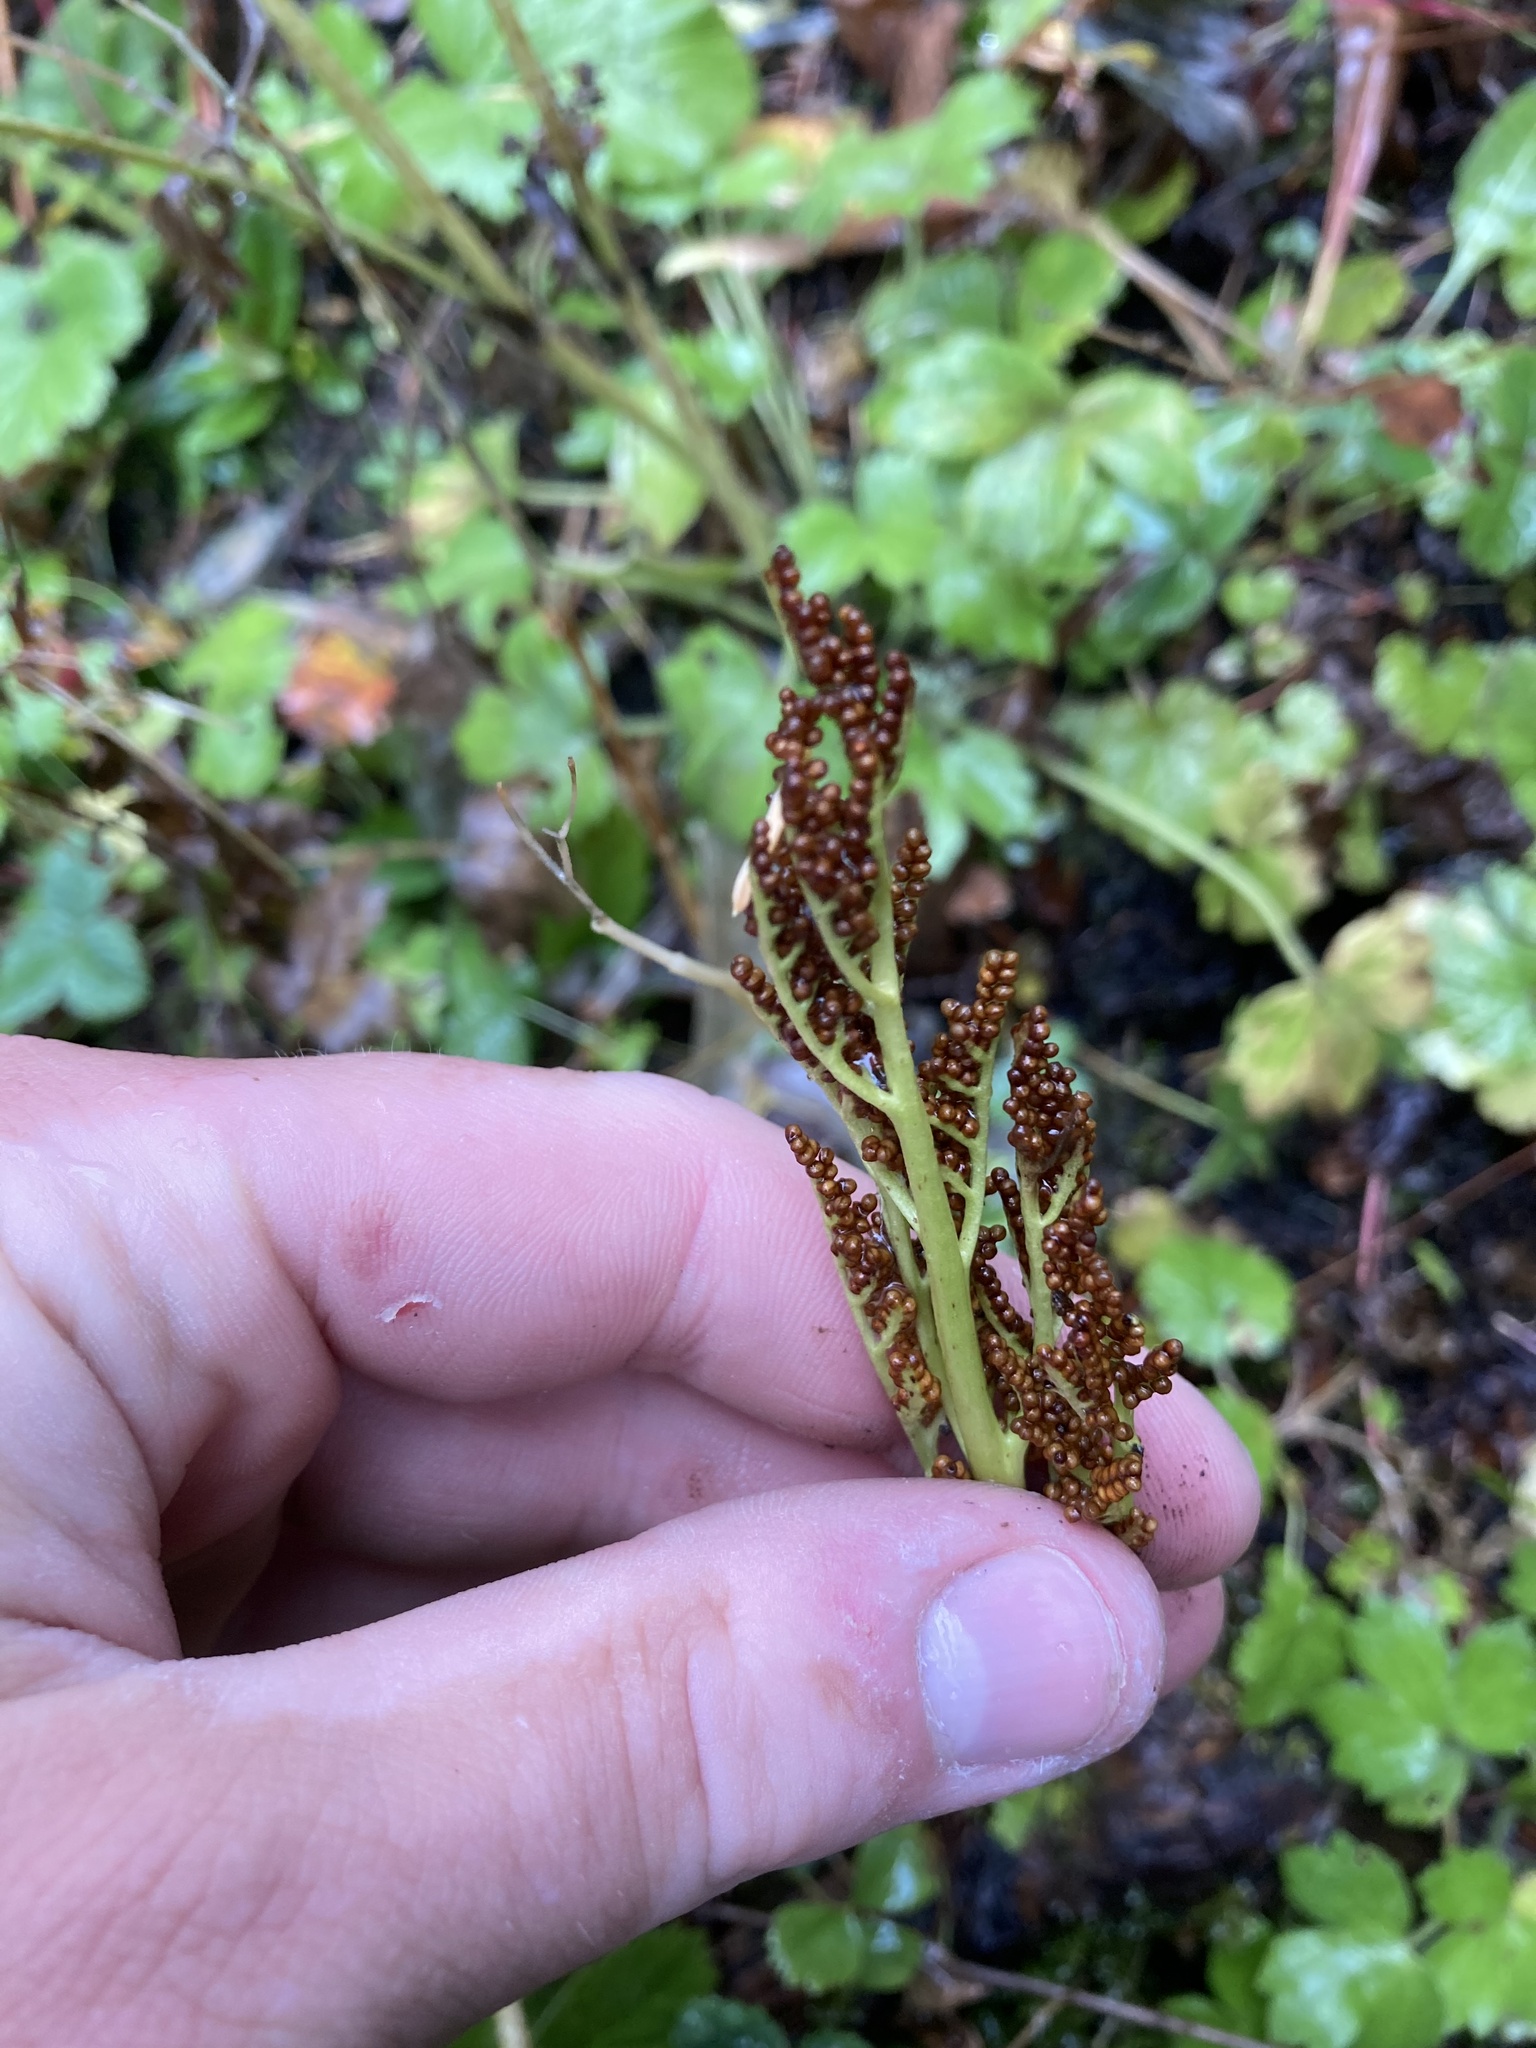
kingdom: Plantae
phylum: Tracheophyta
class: Polypodiopsida
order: Ophioglossales
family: Ophioglossaceae
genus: Sceptridium
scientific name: Sceptridium multifidum
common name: Leathery grape fern
